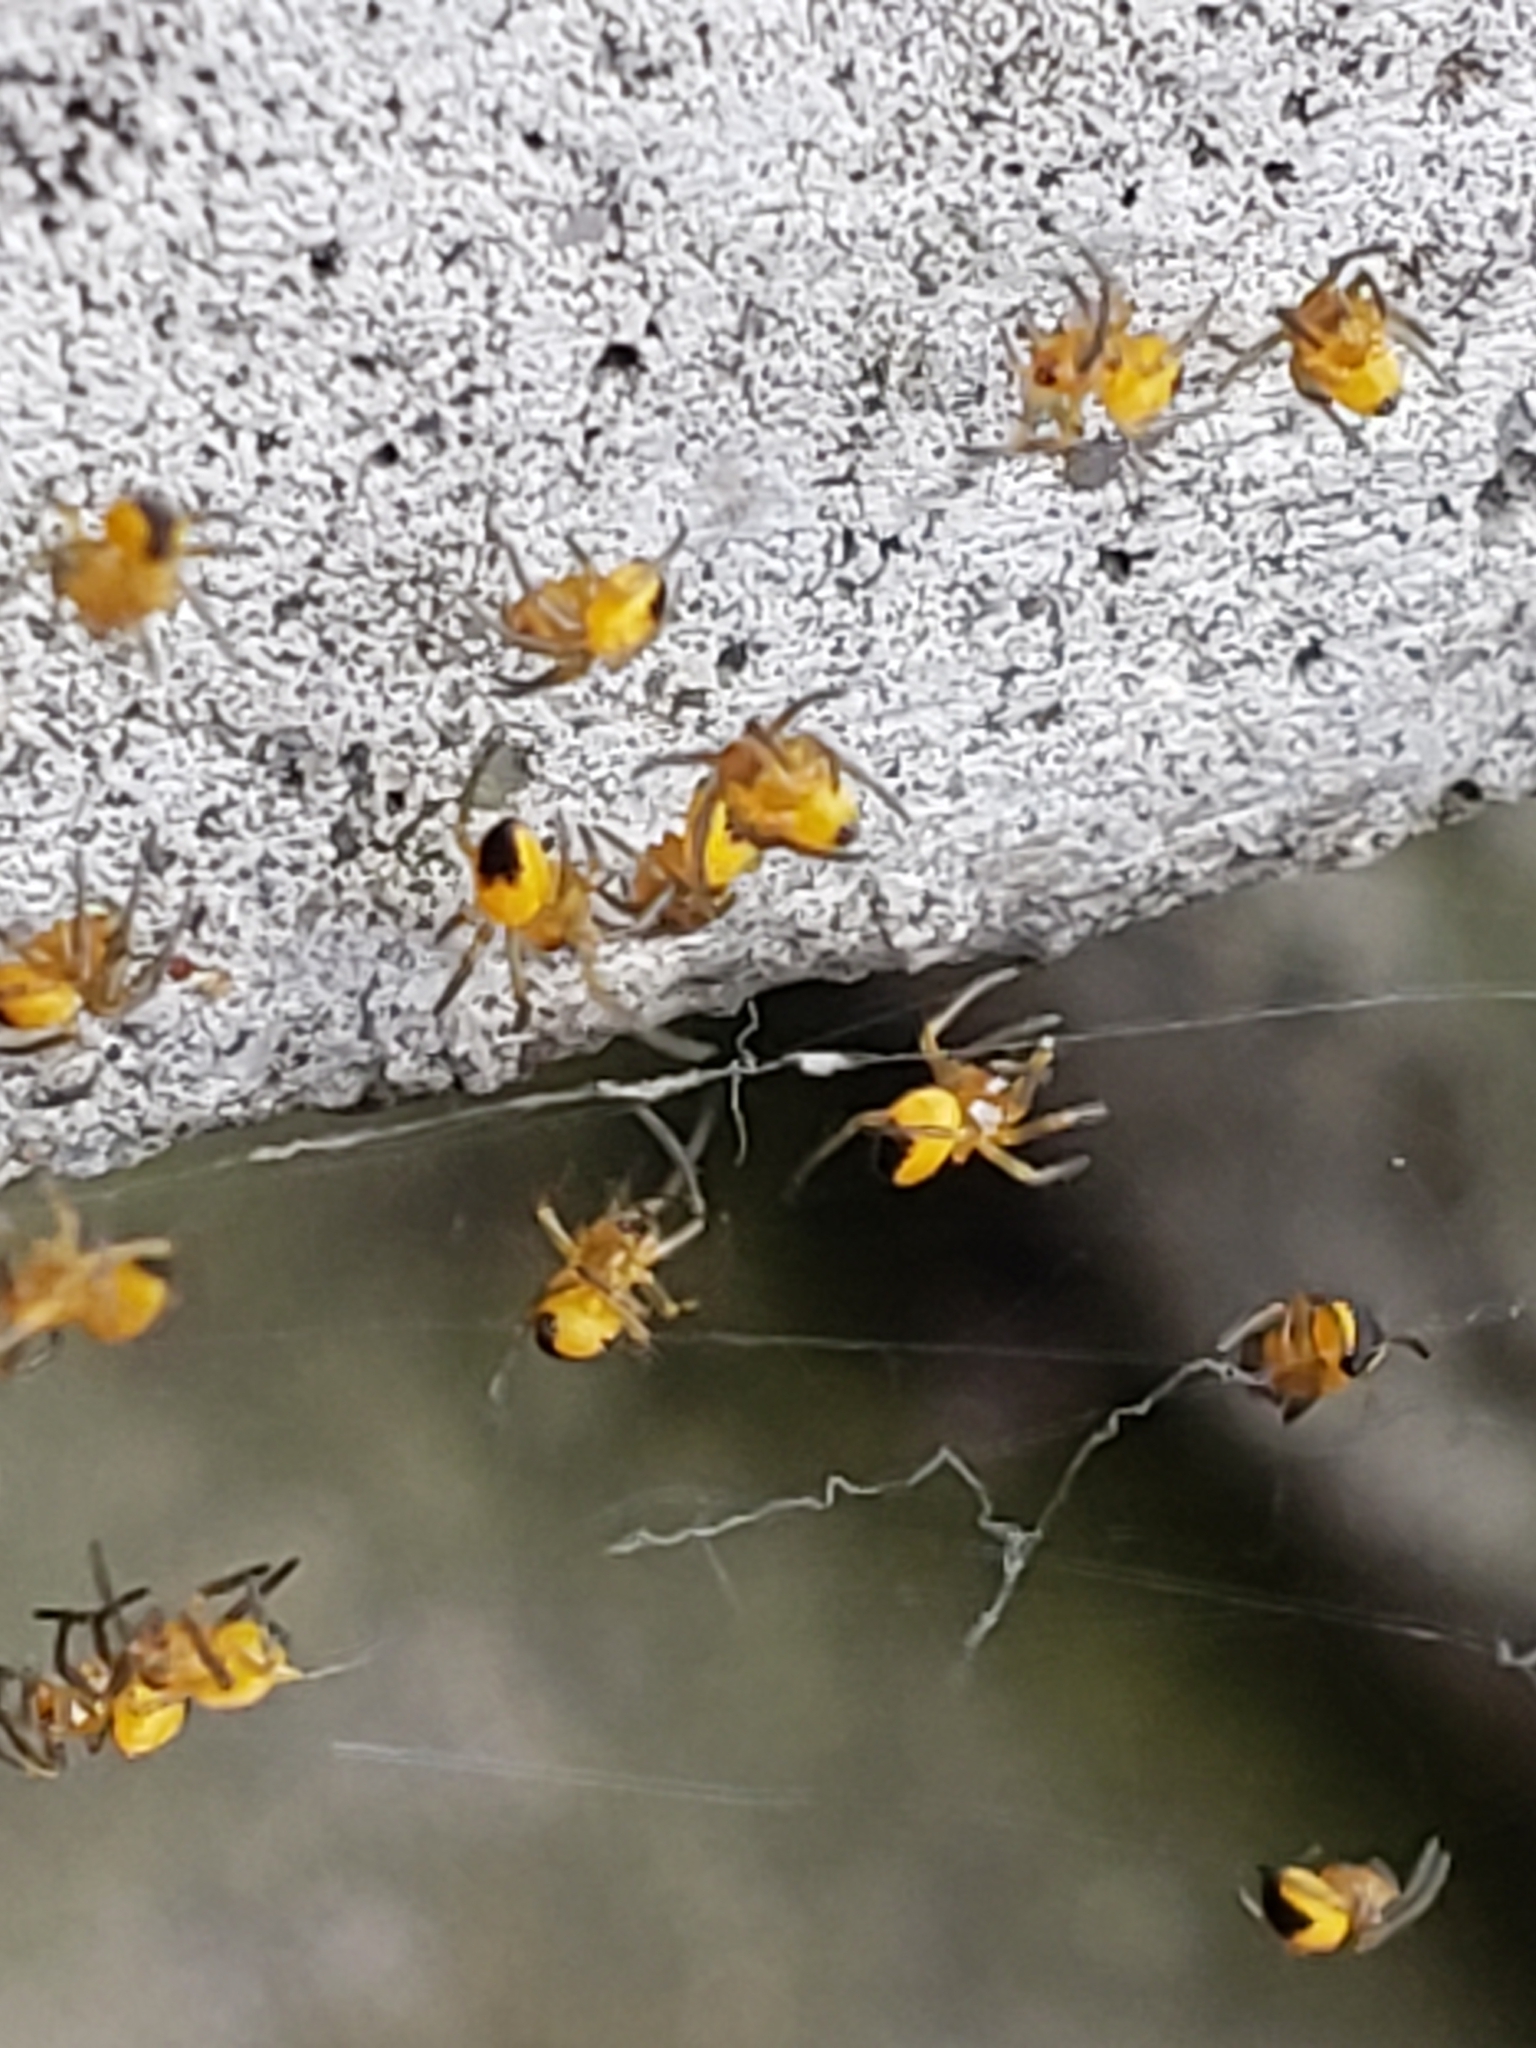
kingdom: Animalia
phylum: Arthropoda
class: Arachnida
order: Araneae
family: Araneidae
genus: Araneus
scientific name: Araneus
